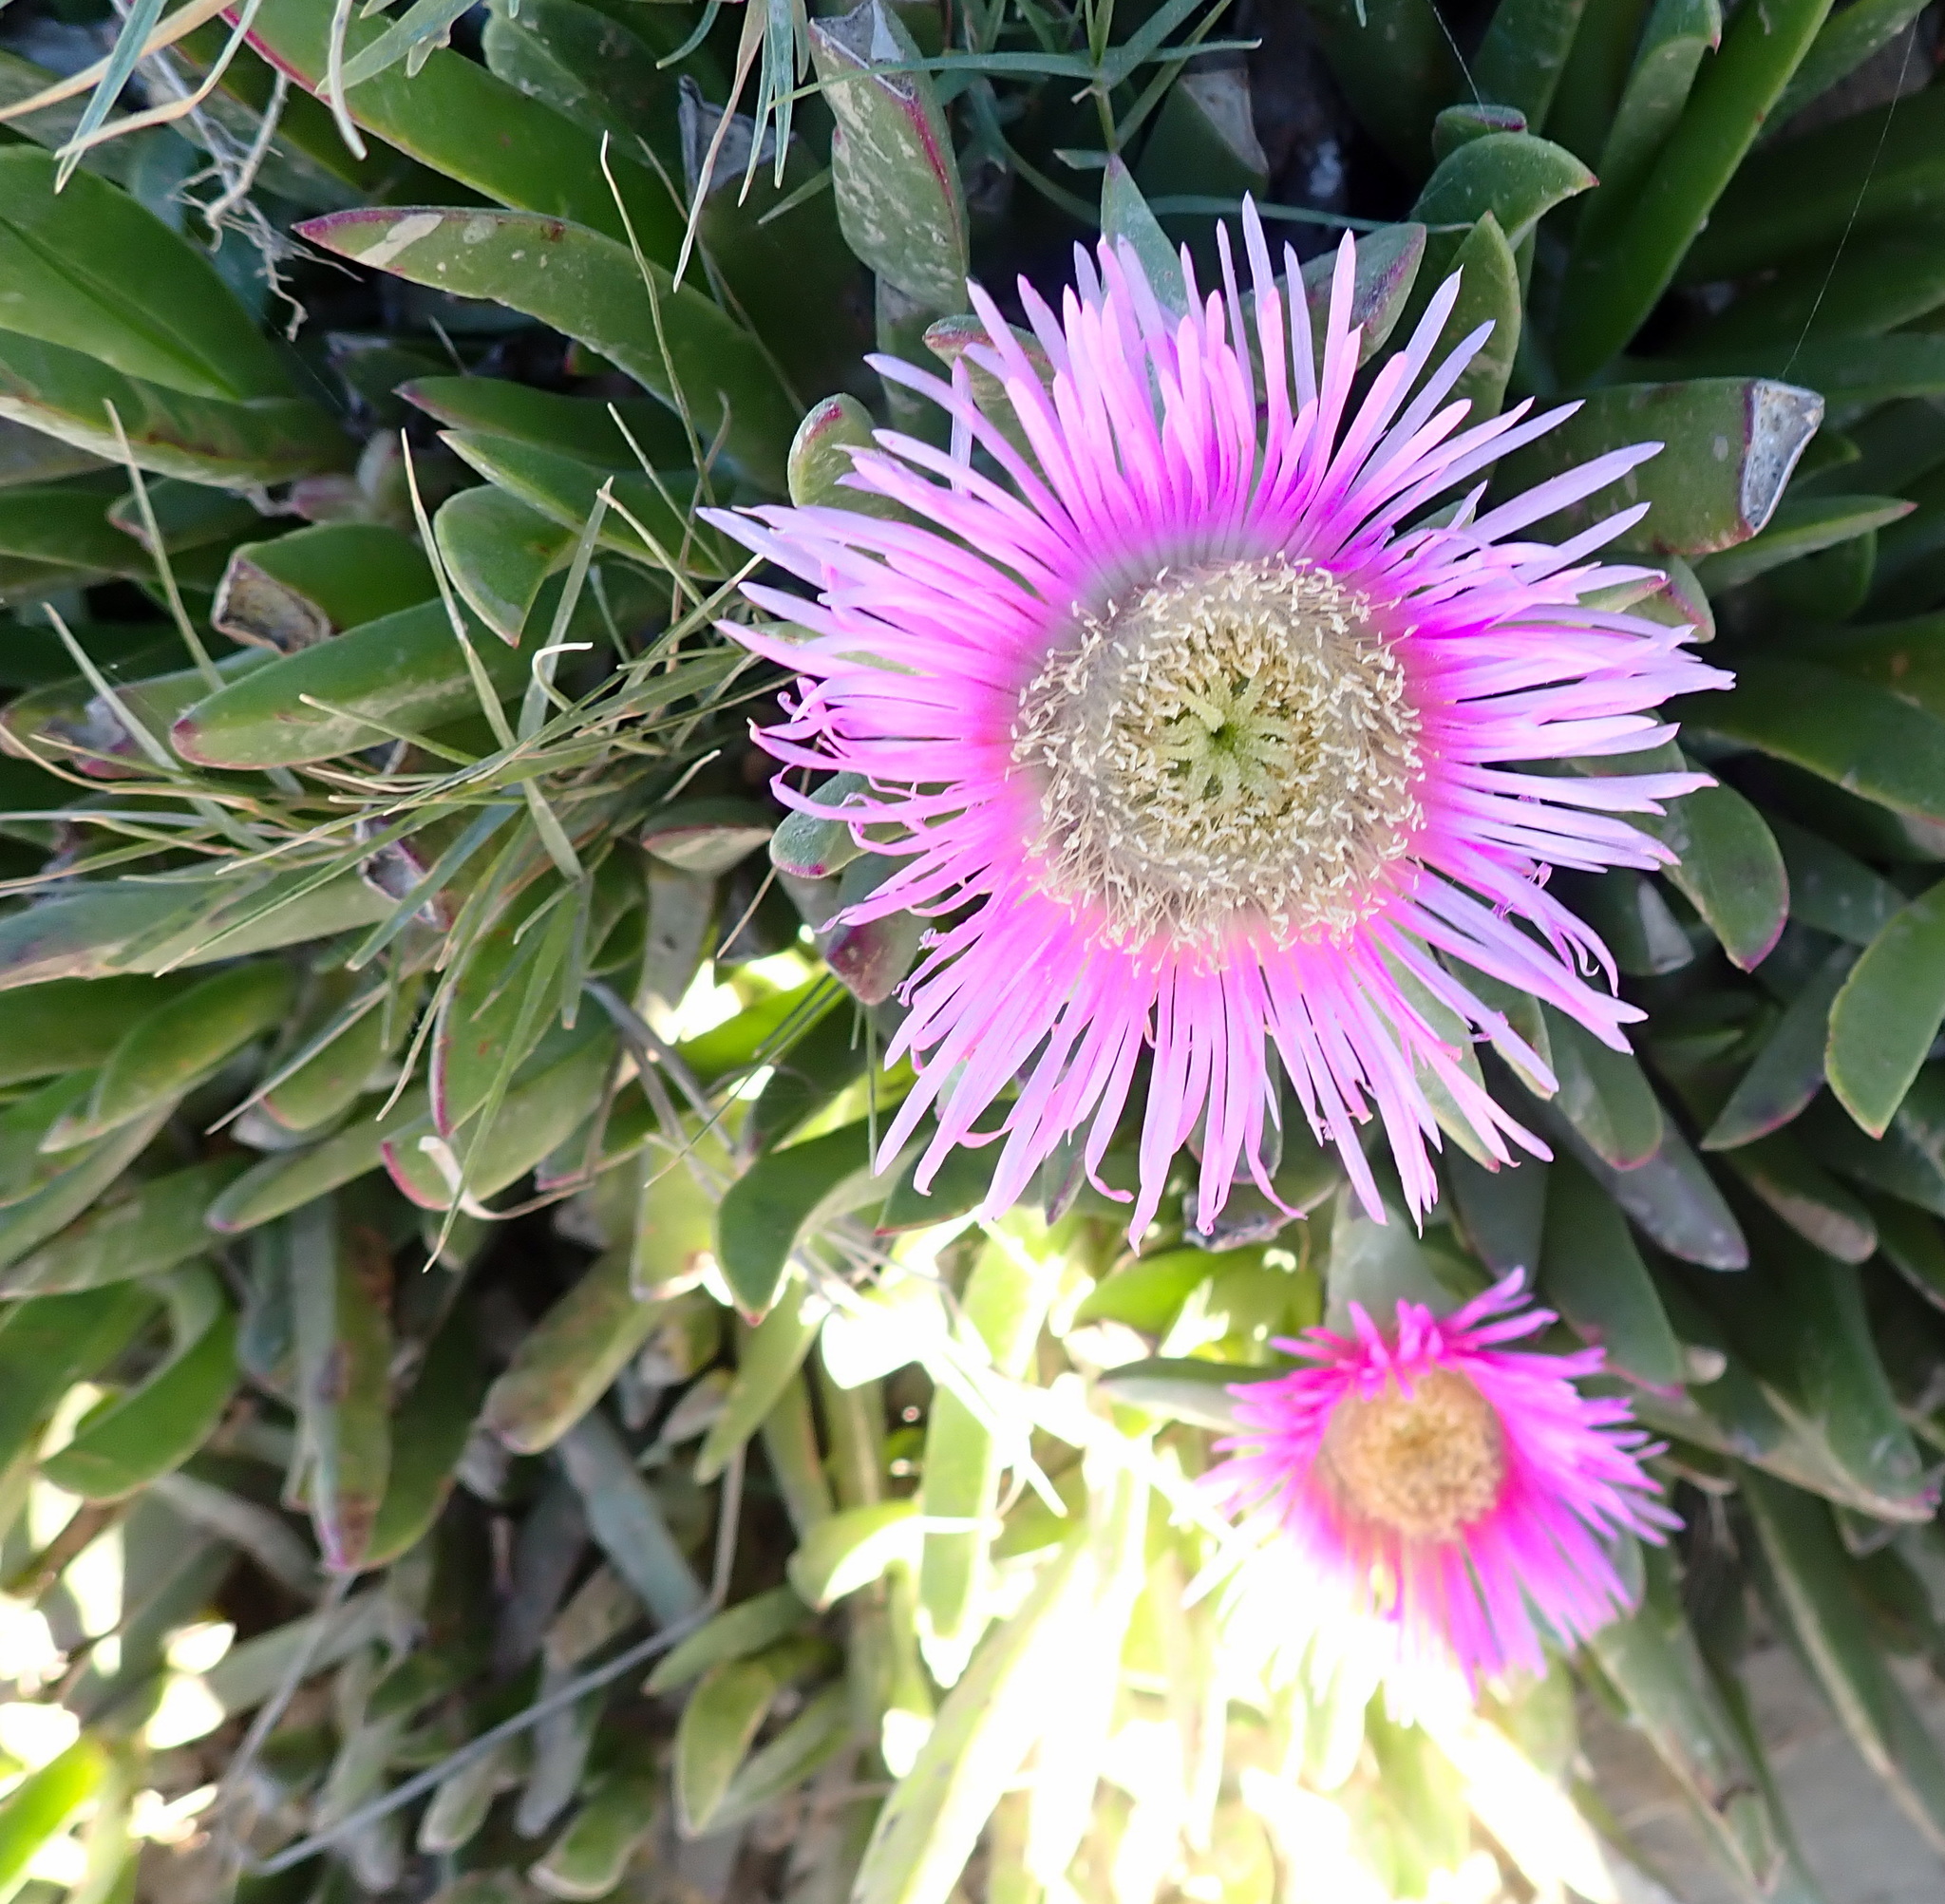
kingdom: Plantae
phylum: Tracheophyta
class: Magnoliopsida
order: Caryophyllales
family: Aizoaceae
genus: Carpobrotus
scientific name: Carpobrotus mellei
